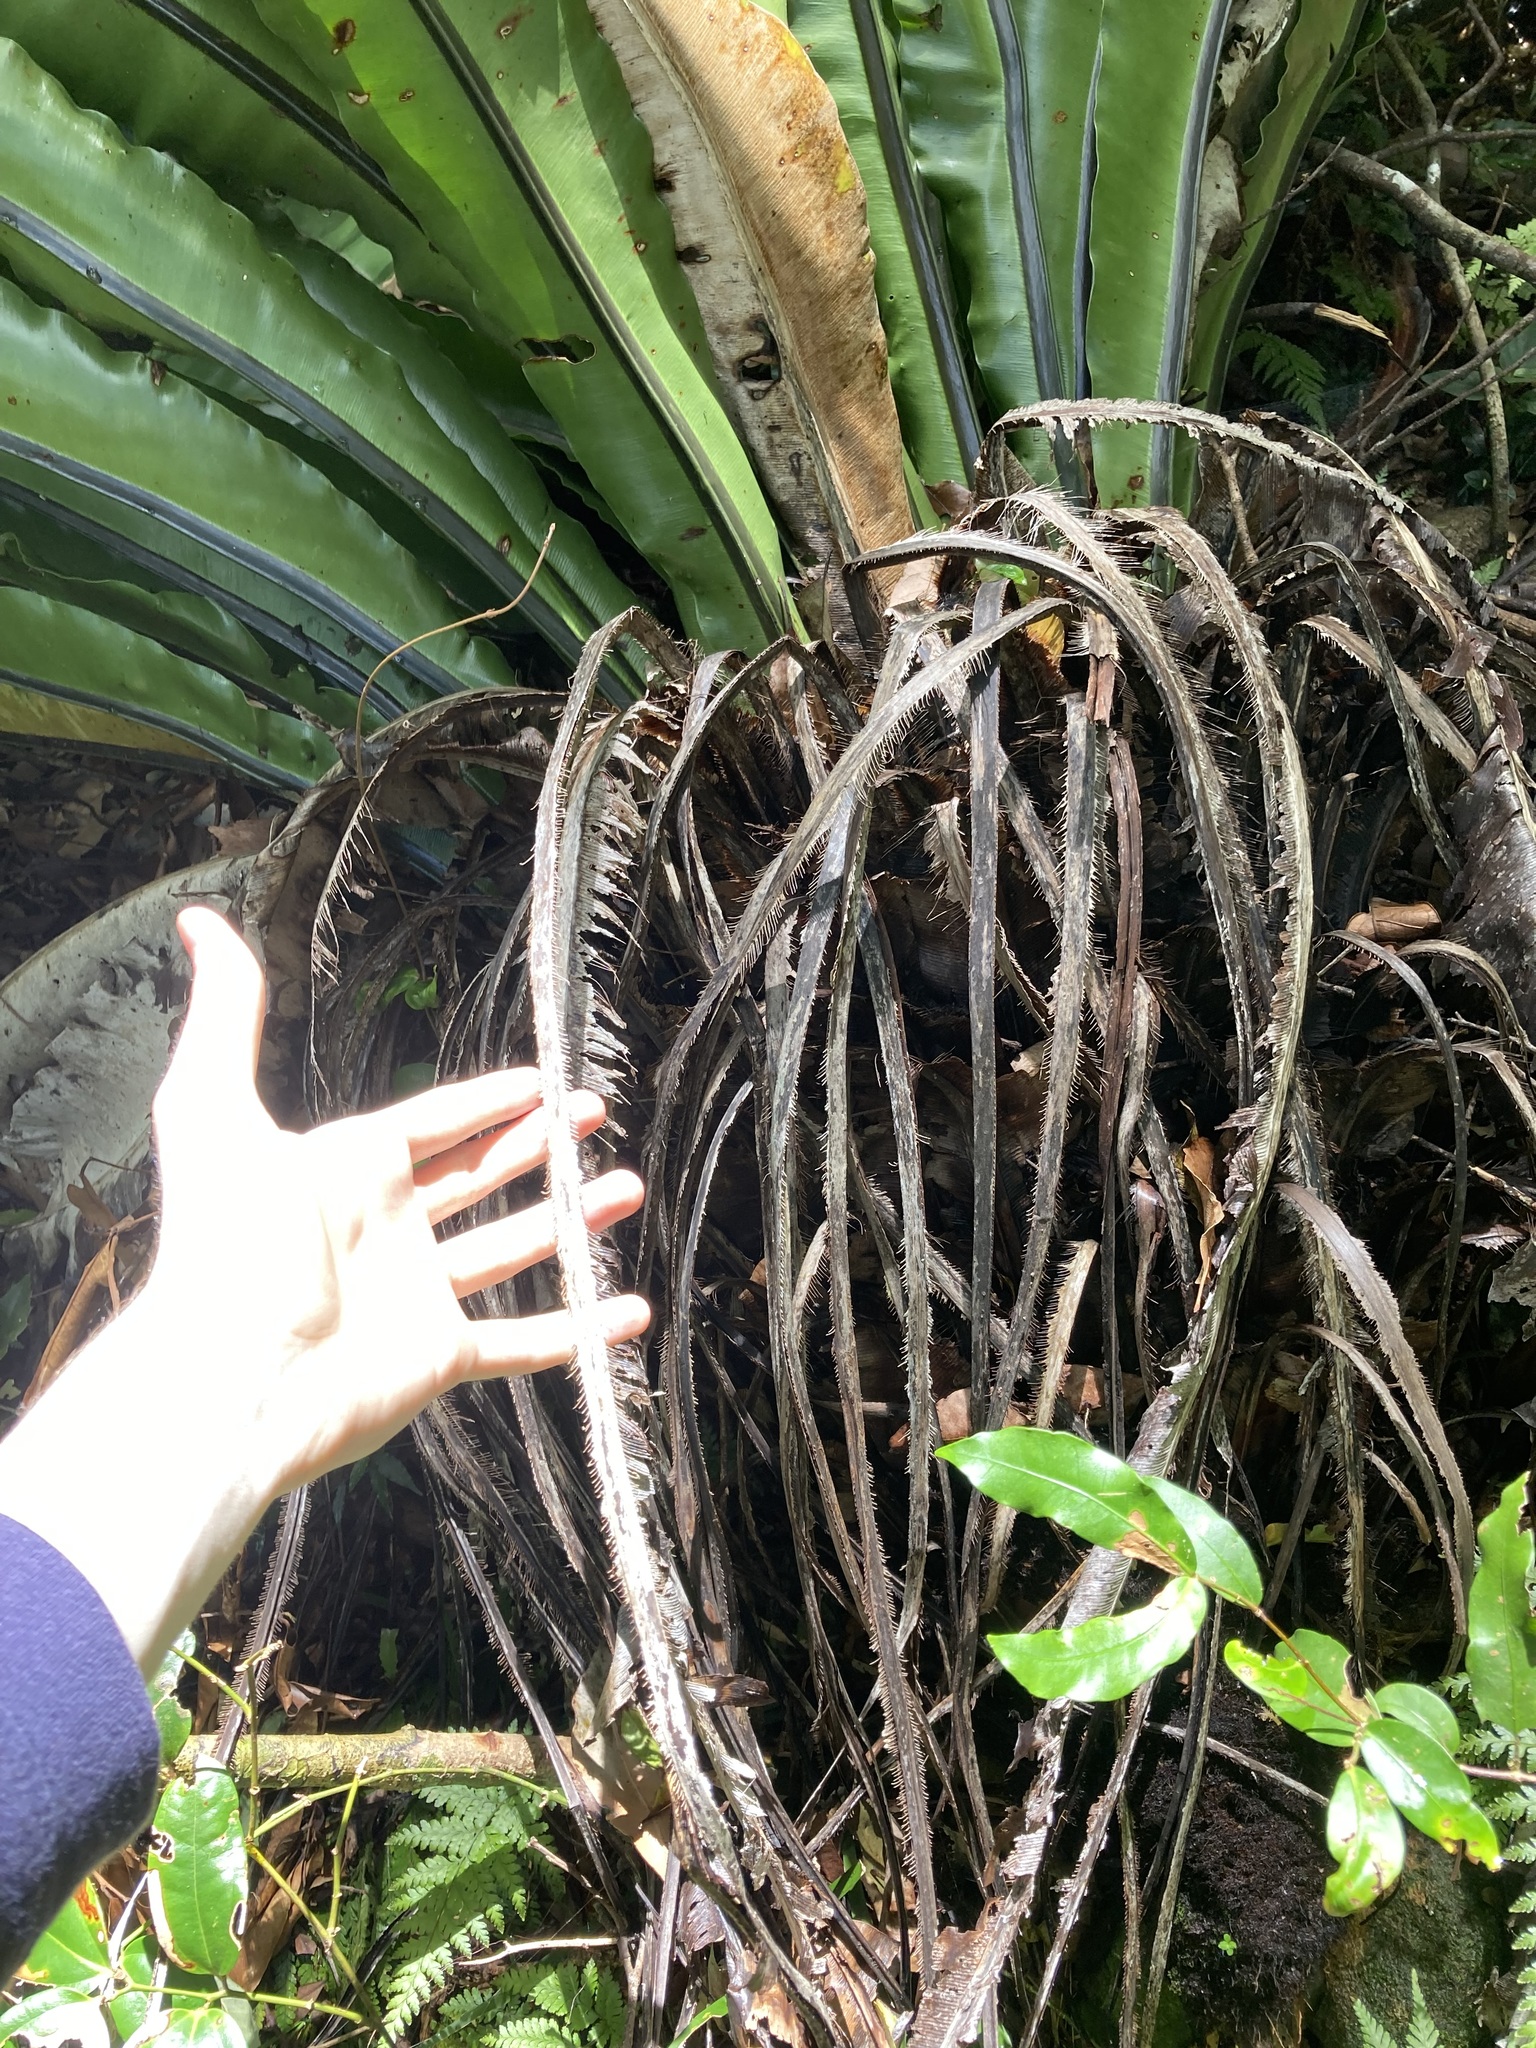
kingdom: Plantae
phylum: Tracheophyta
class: Polypodiopsida
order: Polypodiales
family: Aspleniaceae
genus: Asplenium
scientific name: Asplenium australasicum
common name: Bird's-nest fern
